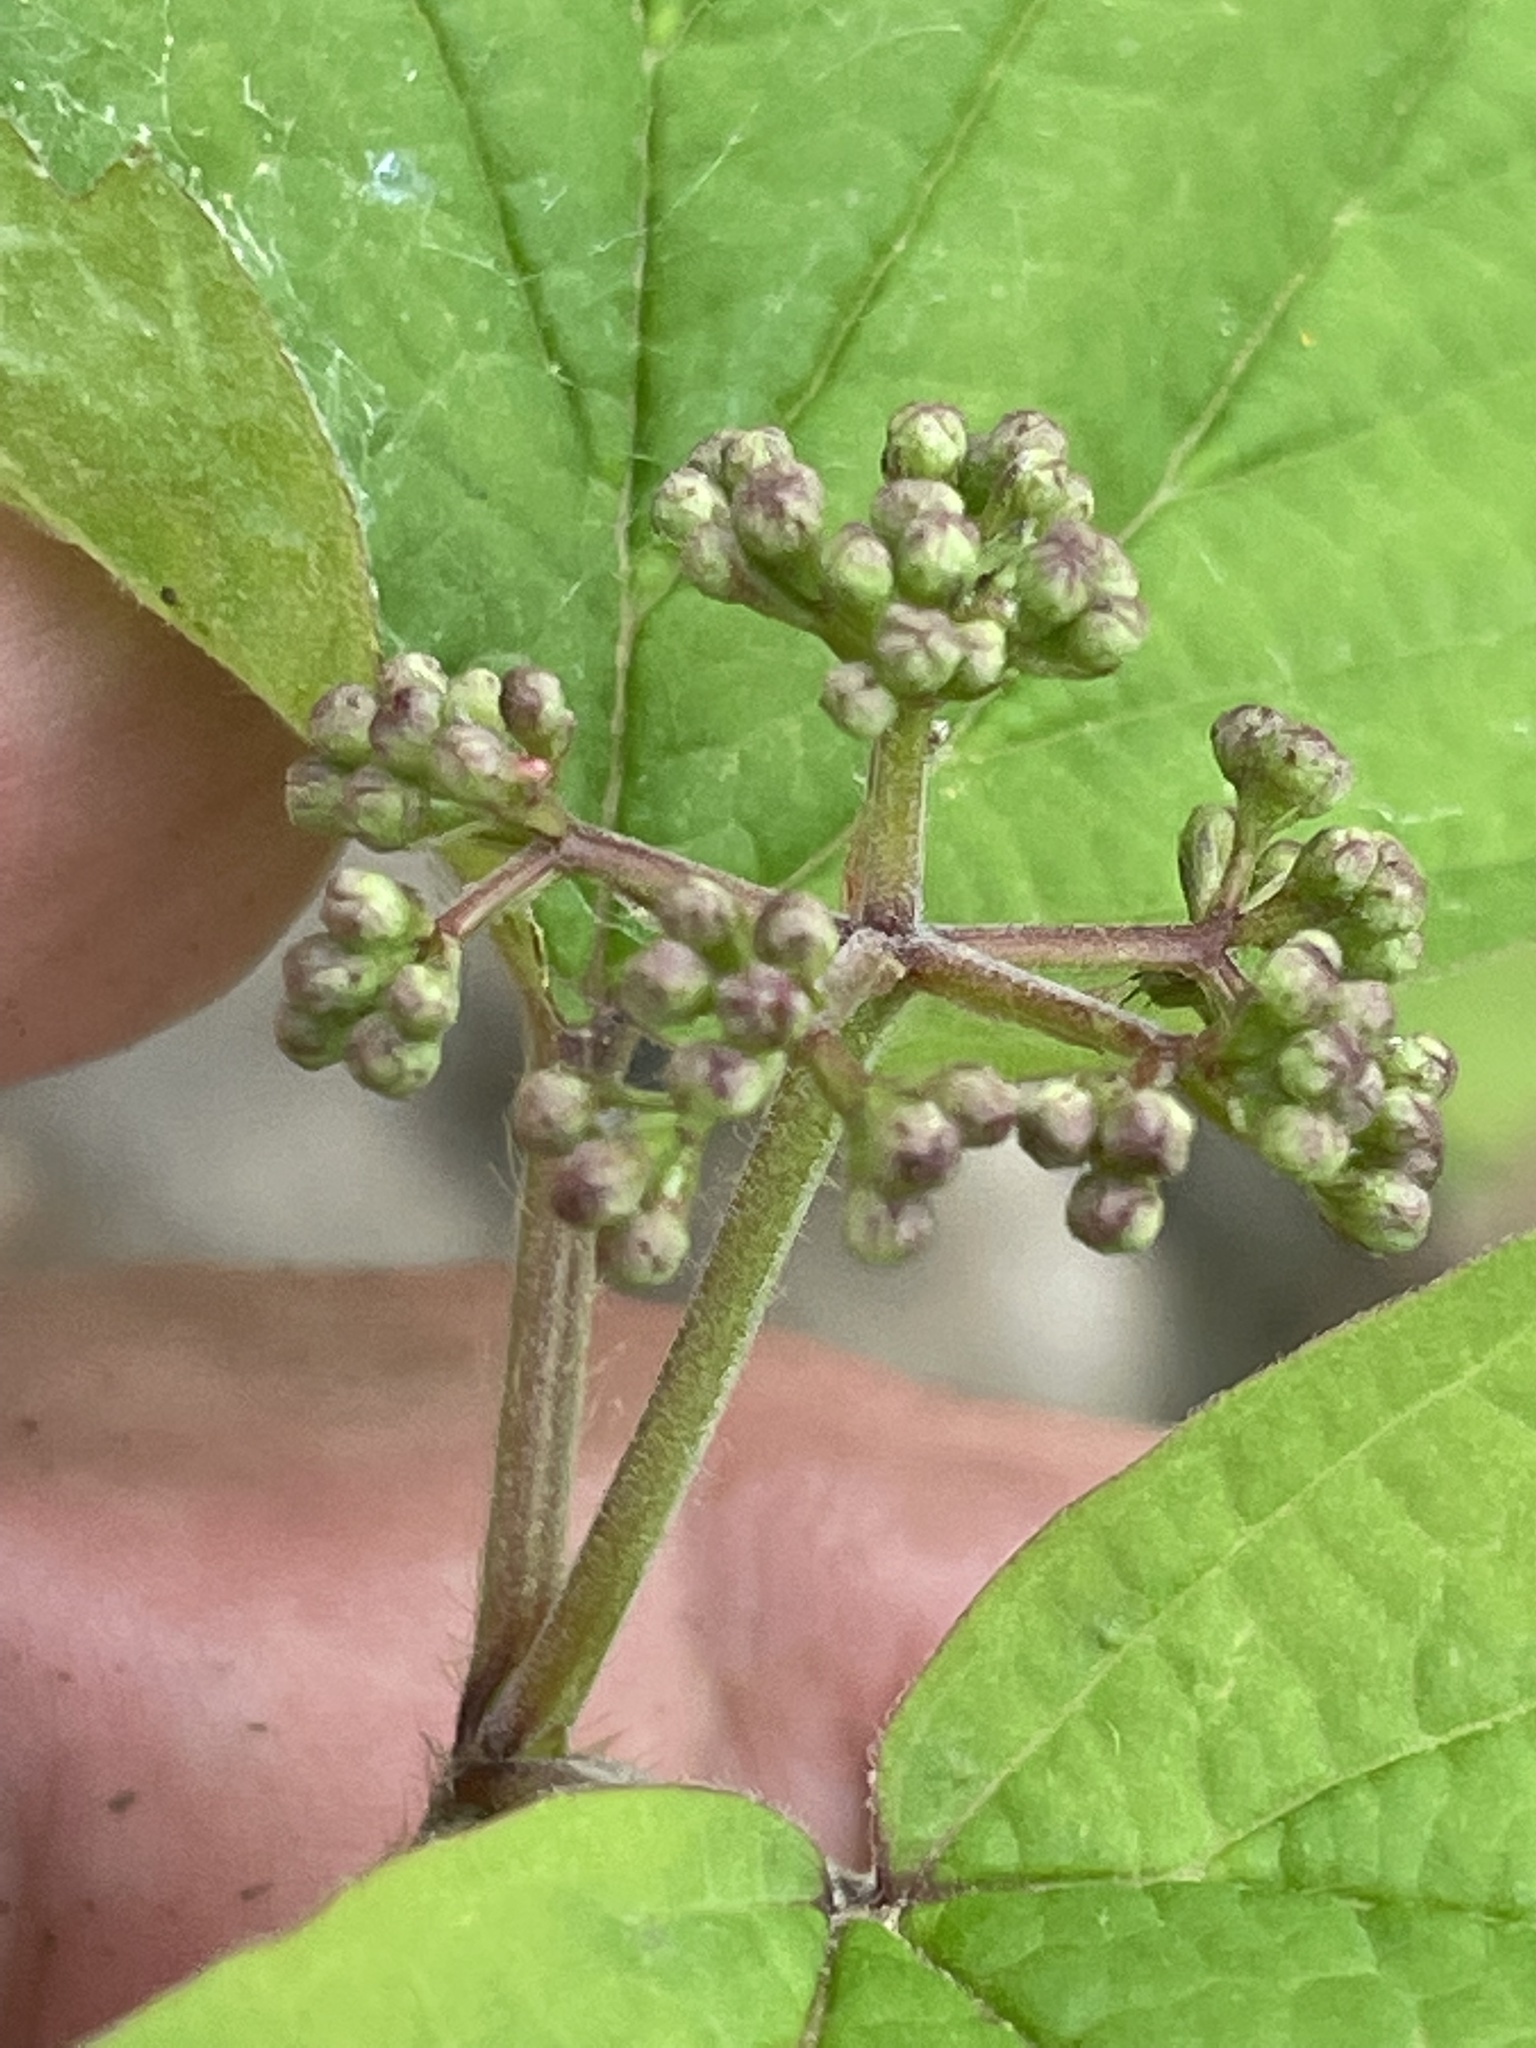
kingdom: Plantae
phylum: Tracheophyta
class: Magnoliopsida
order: Dipsacales
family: Viburnaceae
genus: Viburnum
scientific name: Viburnum acerifolium
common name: Dockmackie
